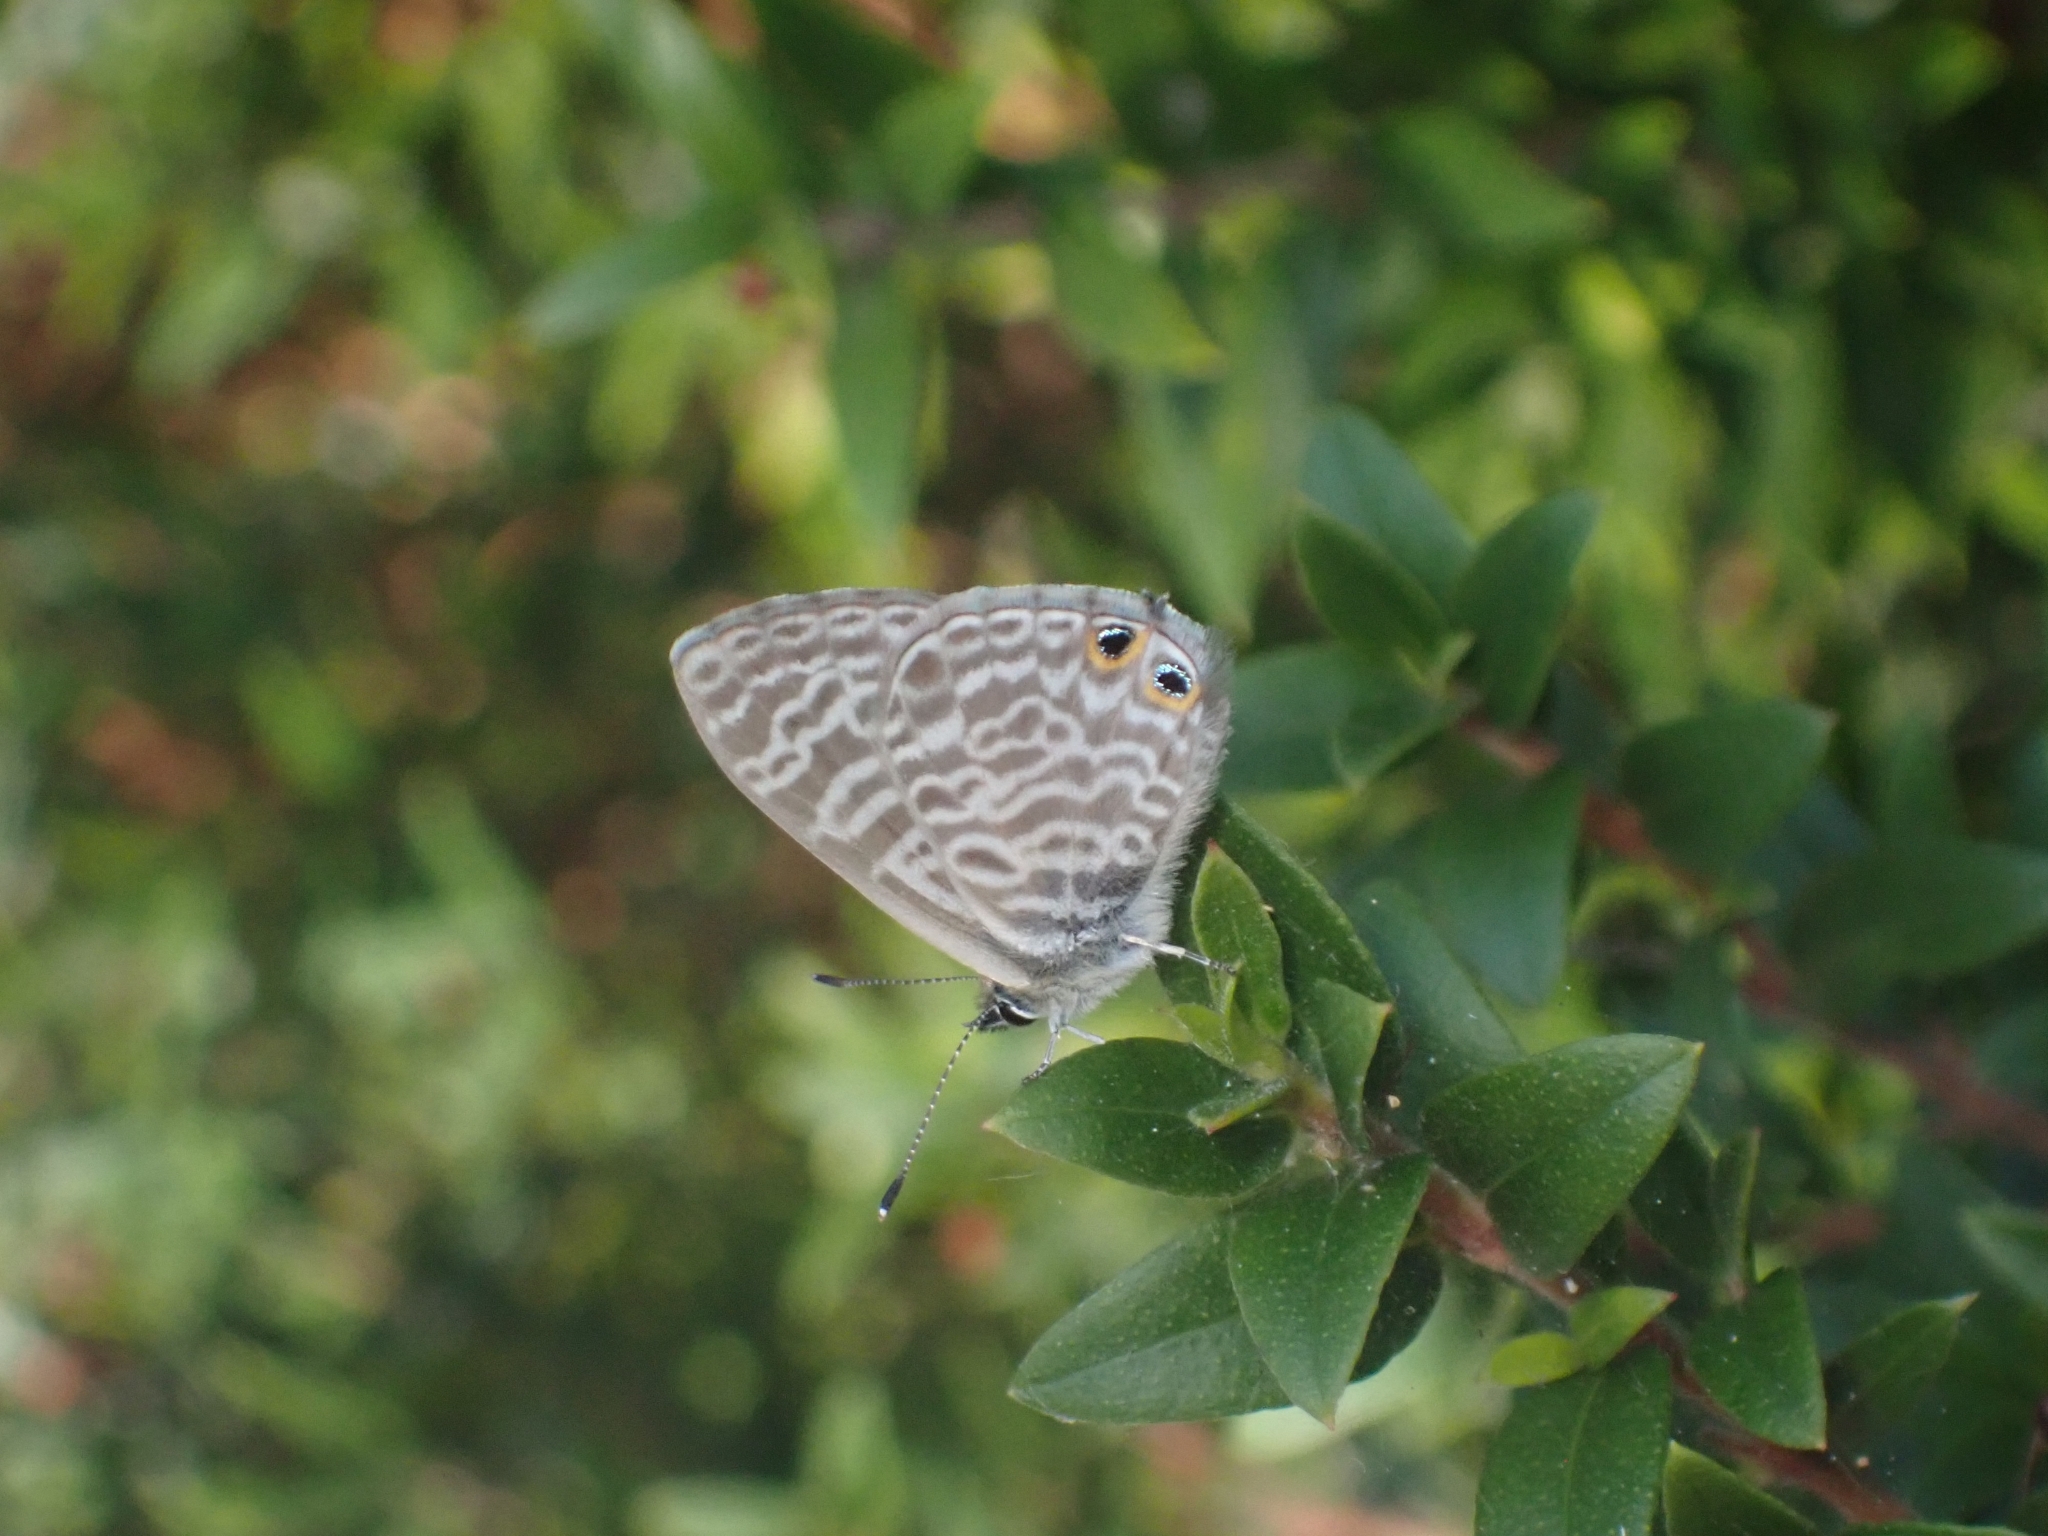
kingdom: Animalia
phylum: Arthropoda
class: Insecta
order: Lepidoptera
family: Lycaenidae
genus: Leptotes
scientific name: Leptotes pirithous
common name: Lang's short-tailed blue
